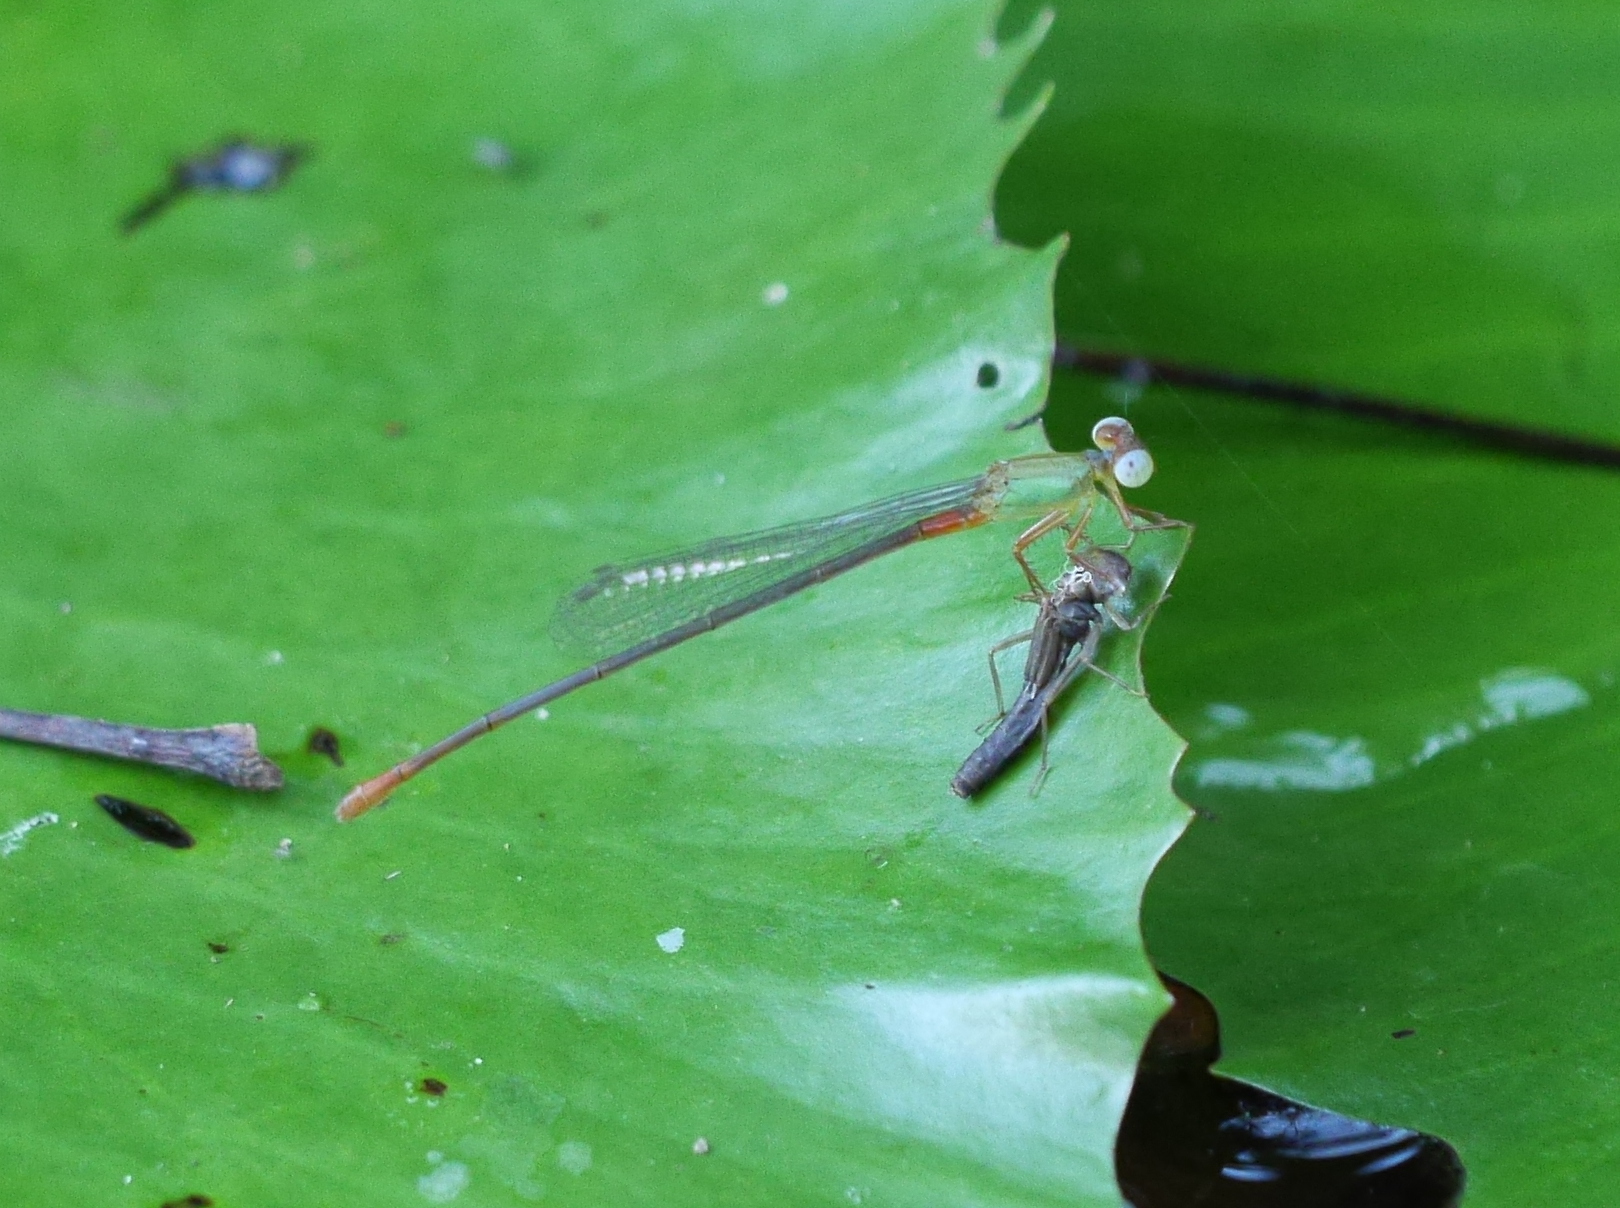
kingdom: Animalia
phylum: Arthropoda
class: Insecta
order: Odonata
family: Coenagrionidae
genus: Ceriagrion
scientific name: Ceriagrion cerinorubellum
